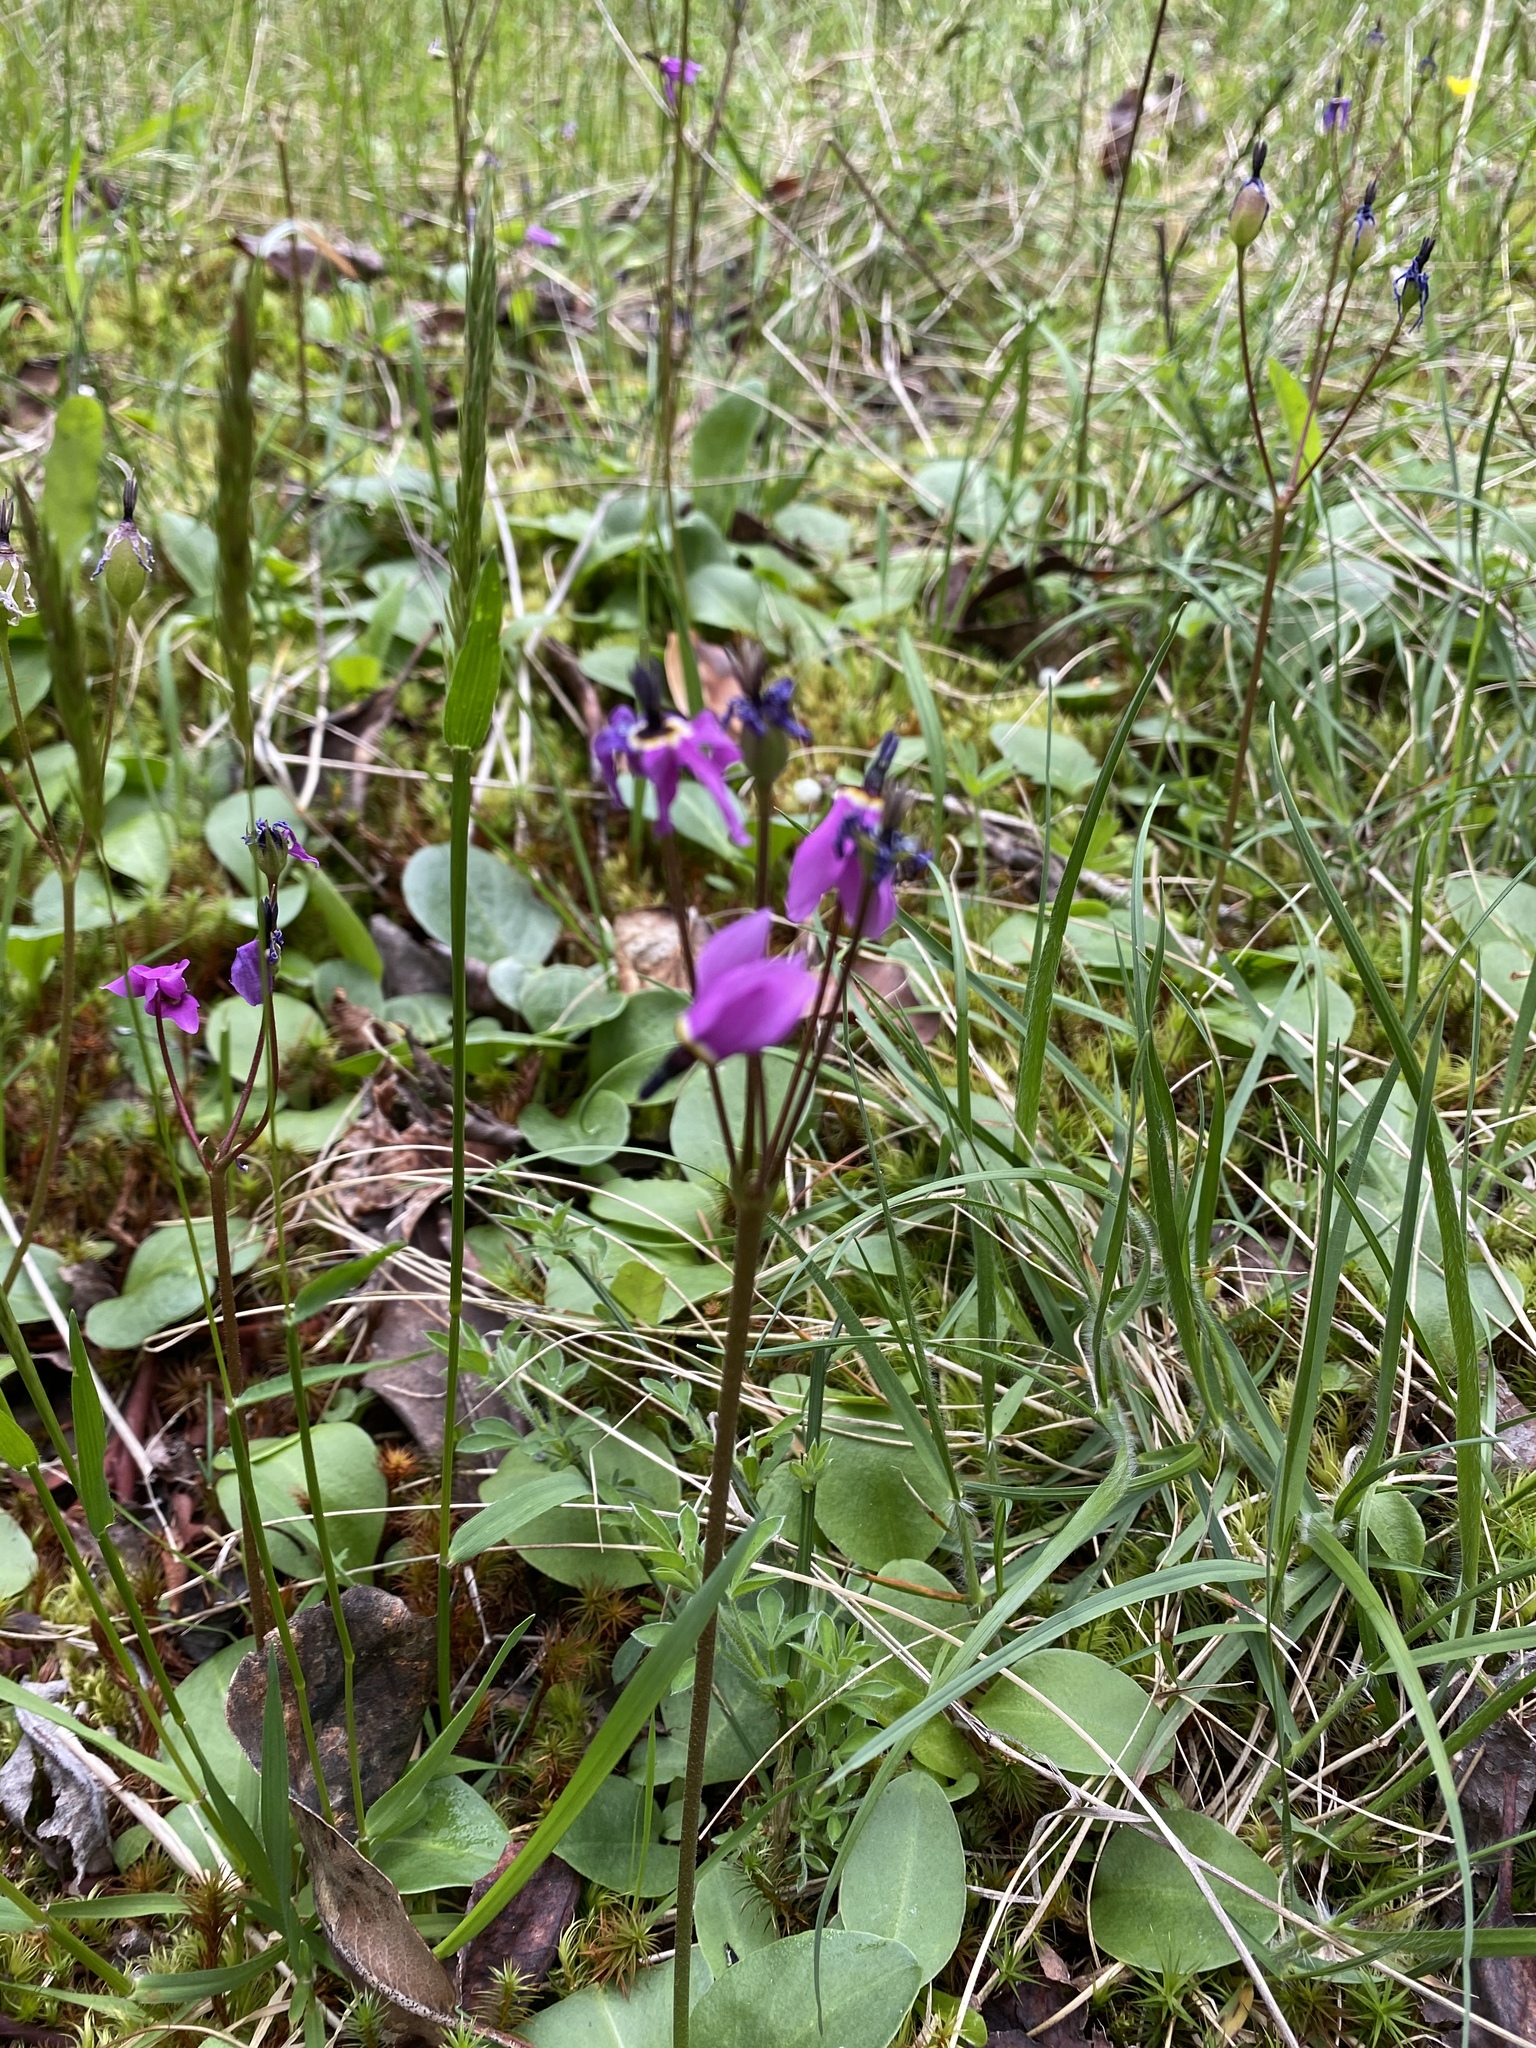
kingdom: Plantae
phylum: Tracheophyta
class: Magnoliopsida
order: Ericales
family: Primulaceae
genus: Dodecatheon
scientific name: Dodecatheon hendersonii
